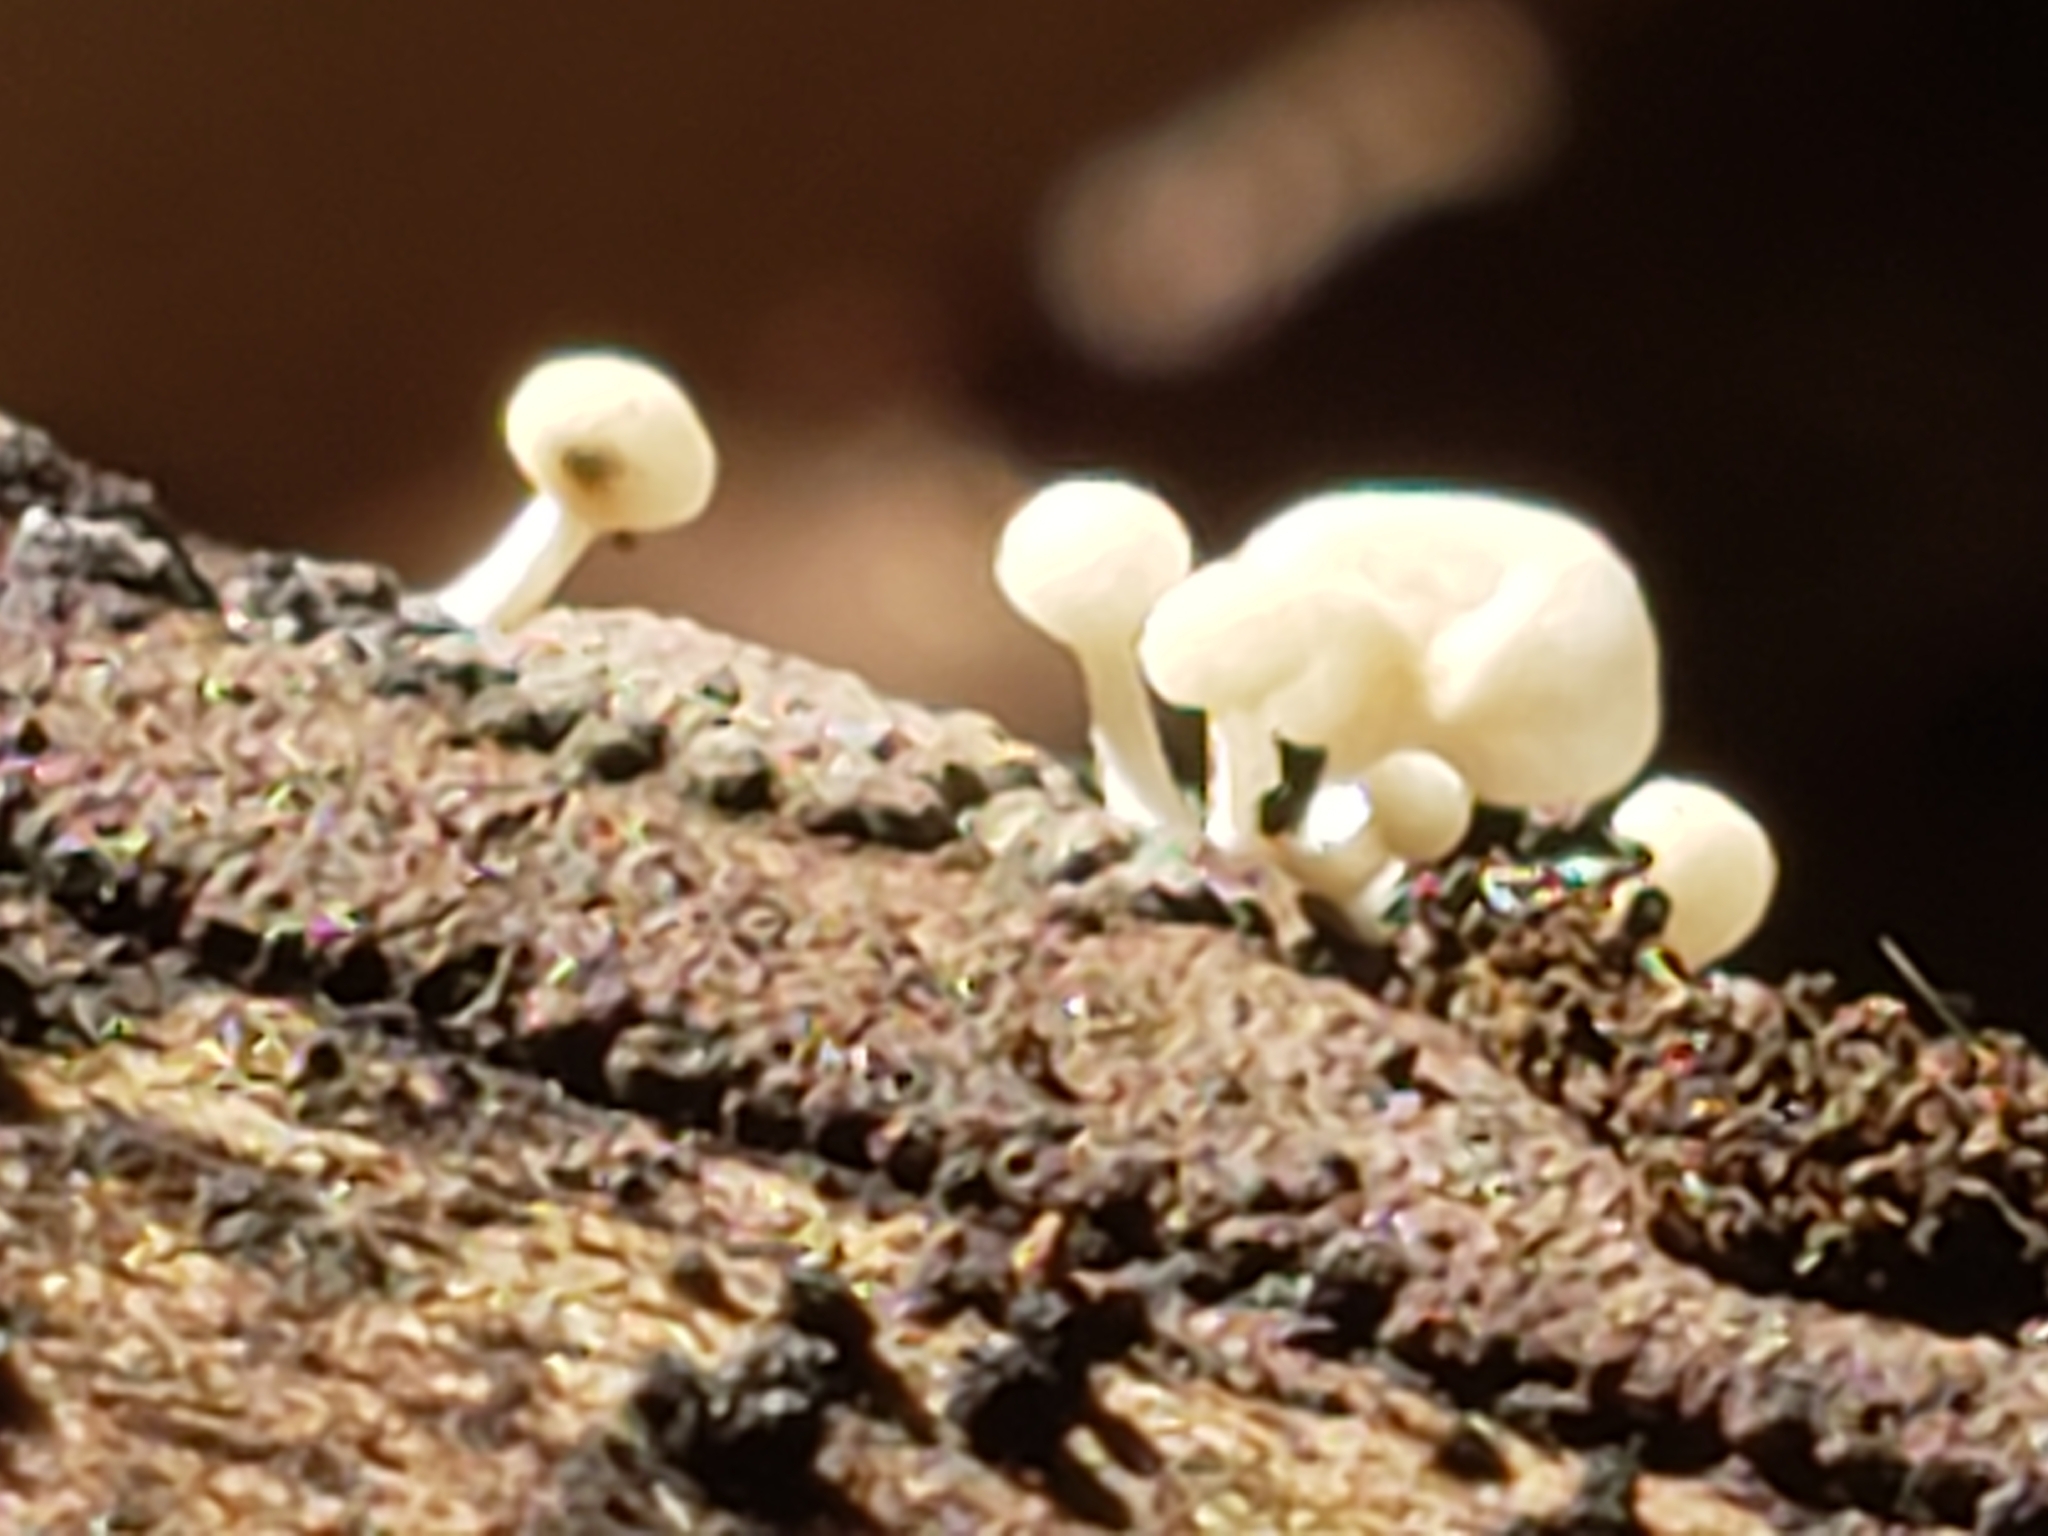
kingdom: Fungi
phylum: Basidiomycota
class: Agaricomycetes
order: Agaricales
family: Physalacriaceae
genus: Physalacria
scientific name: Physalacria inflata
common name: Bladder stalks
